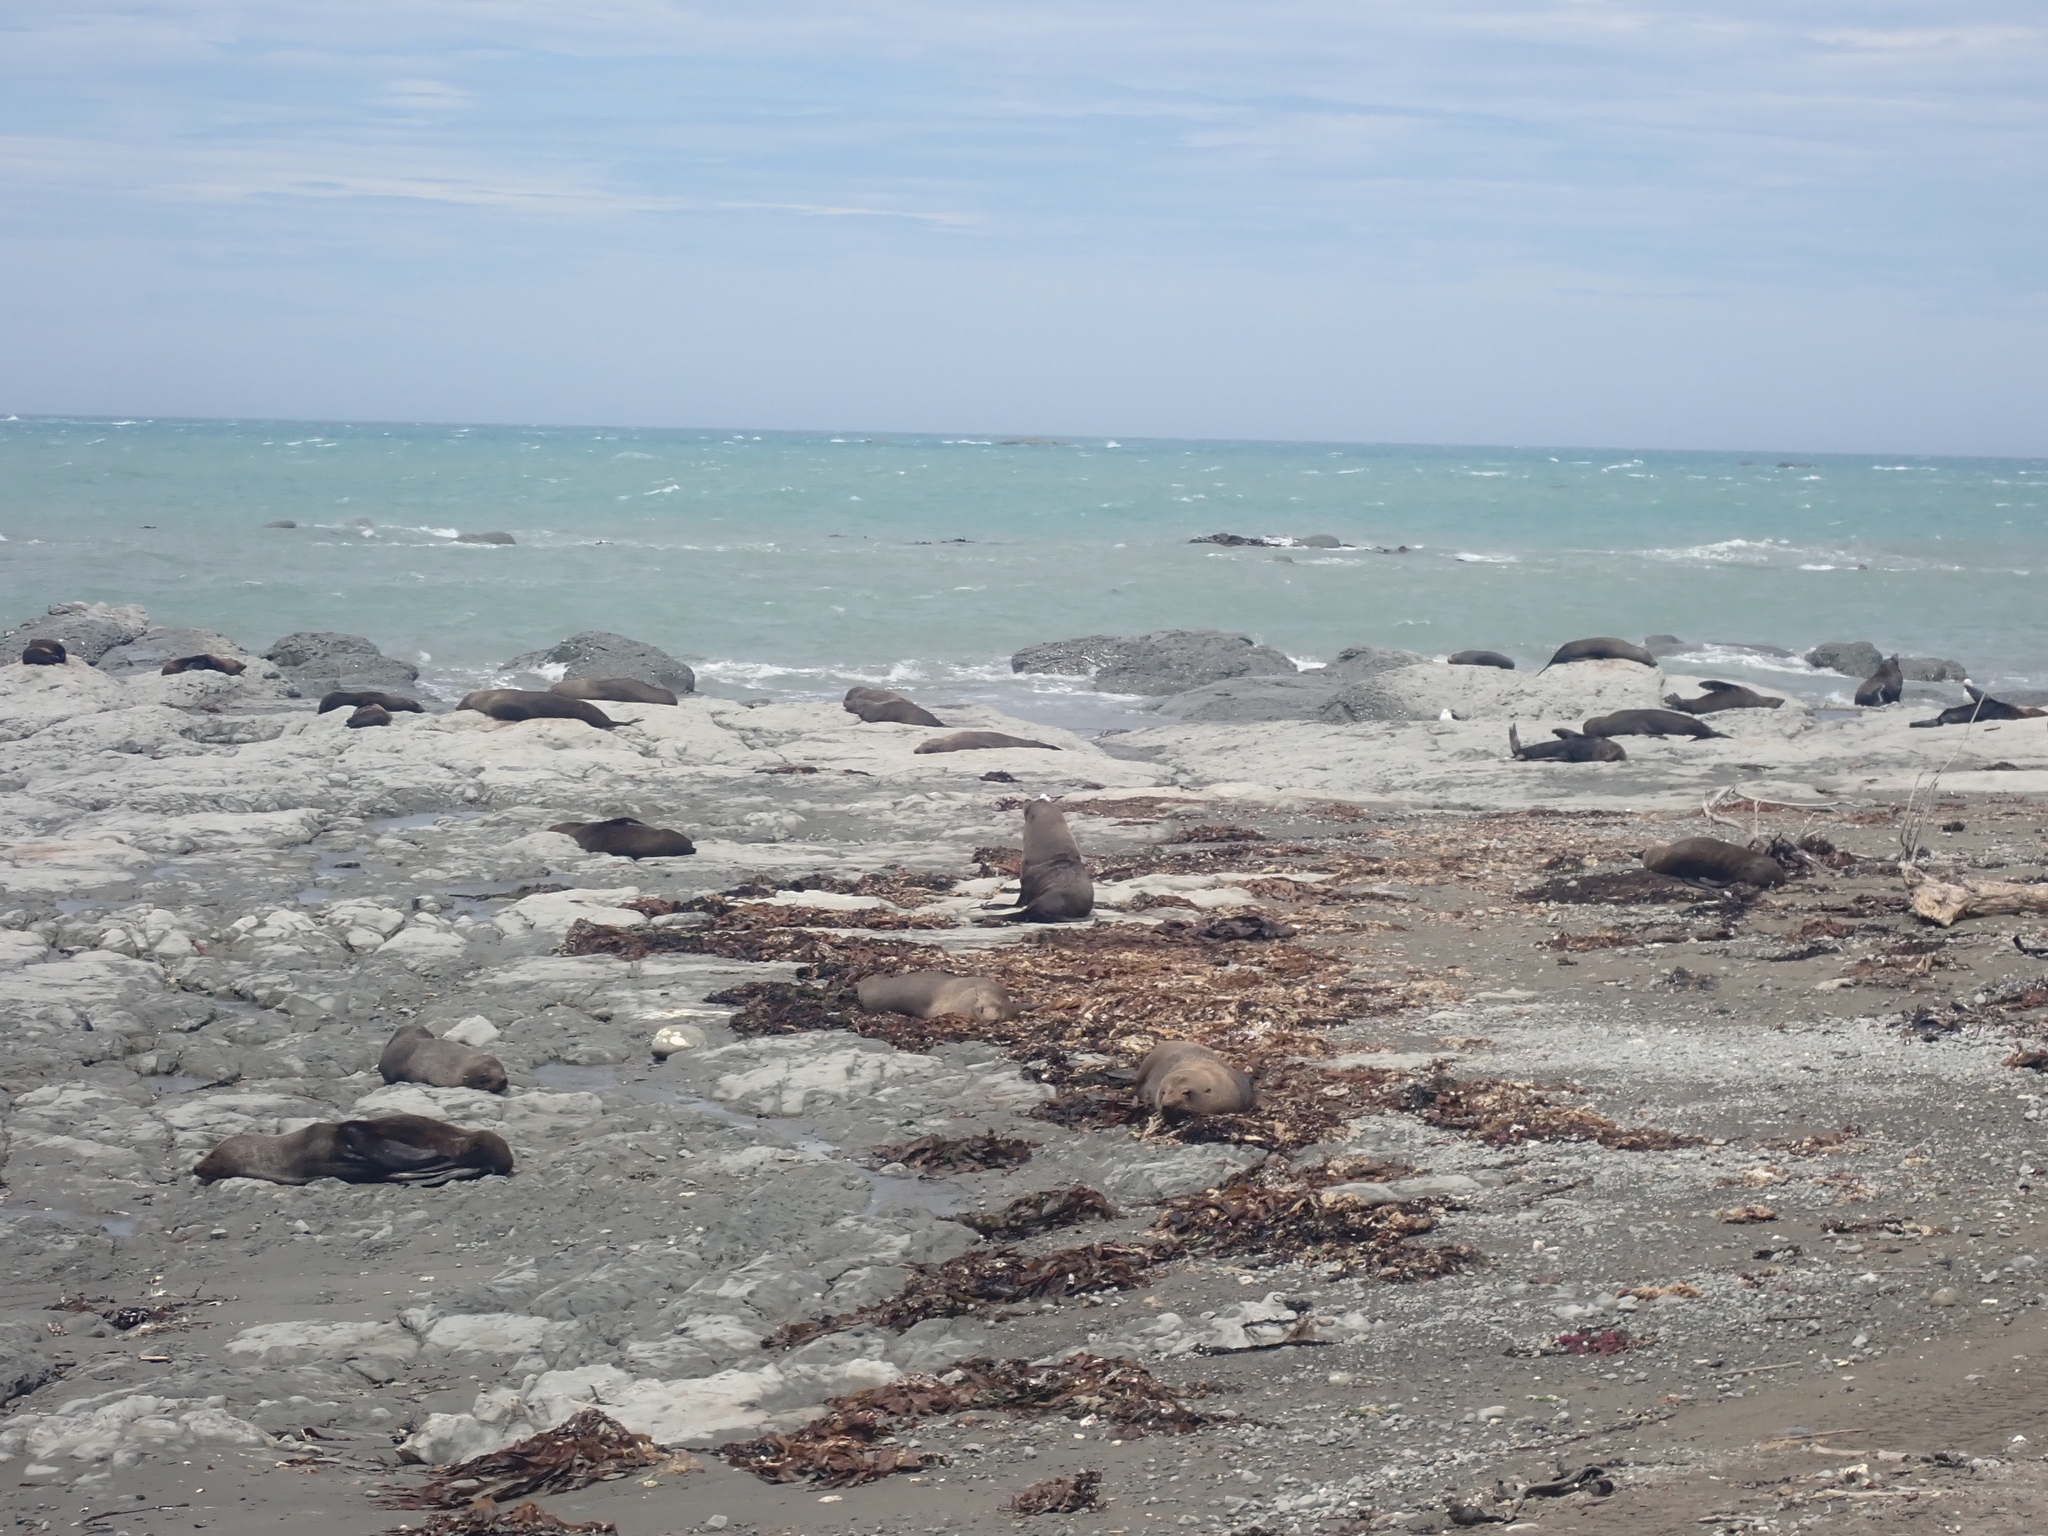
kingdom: Animalia
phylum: Chordata
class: Mammalia
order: Carnivora
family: Otariidae
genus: Arctocephalus
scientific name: Arctocephalus forsteri
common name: New zealand fur seal
